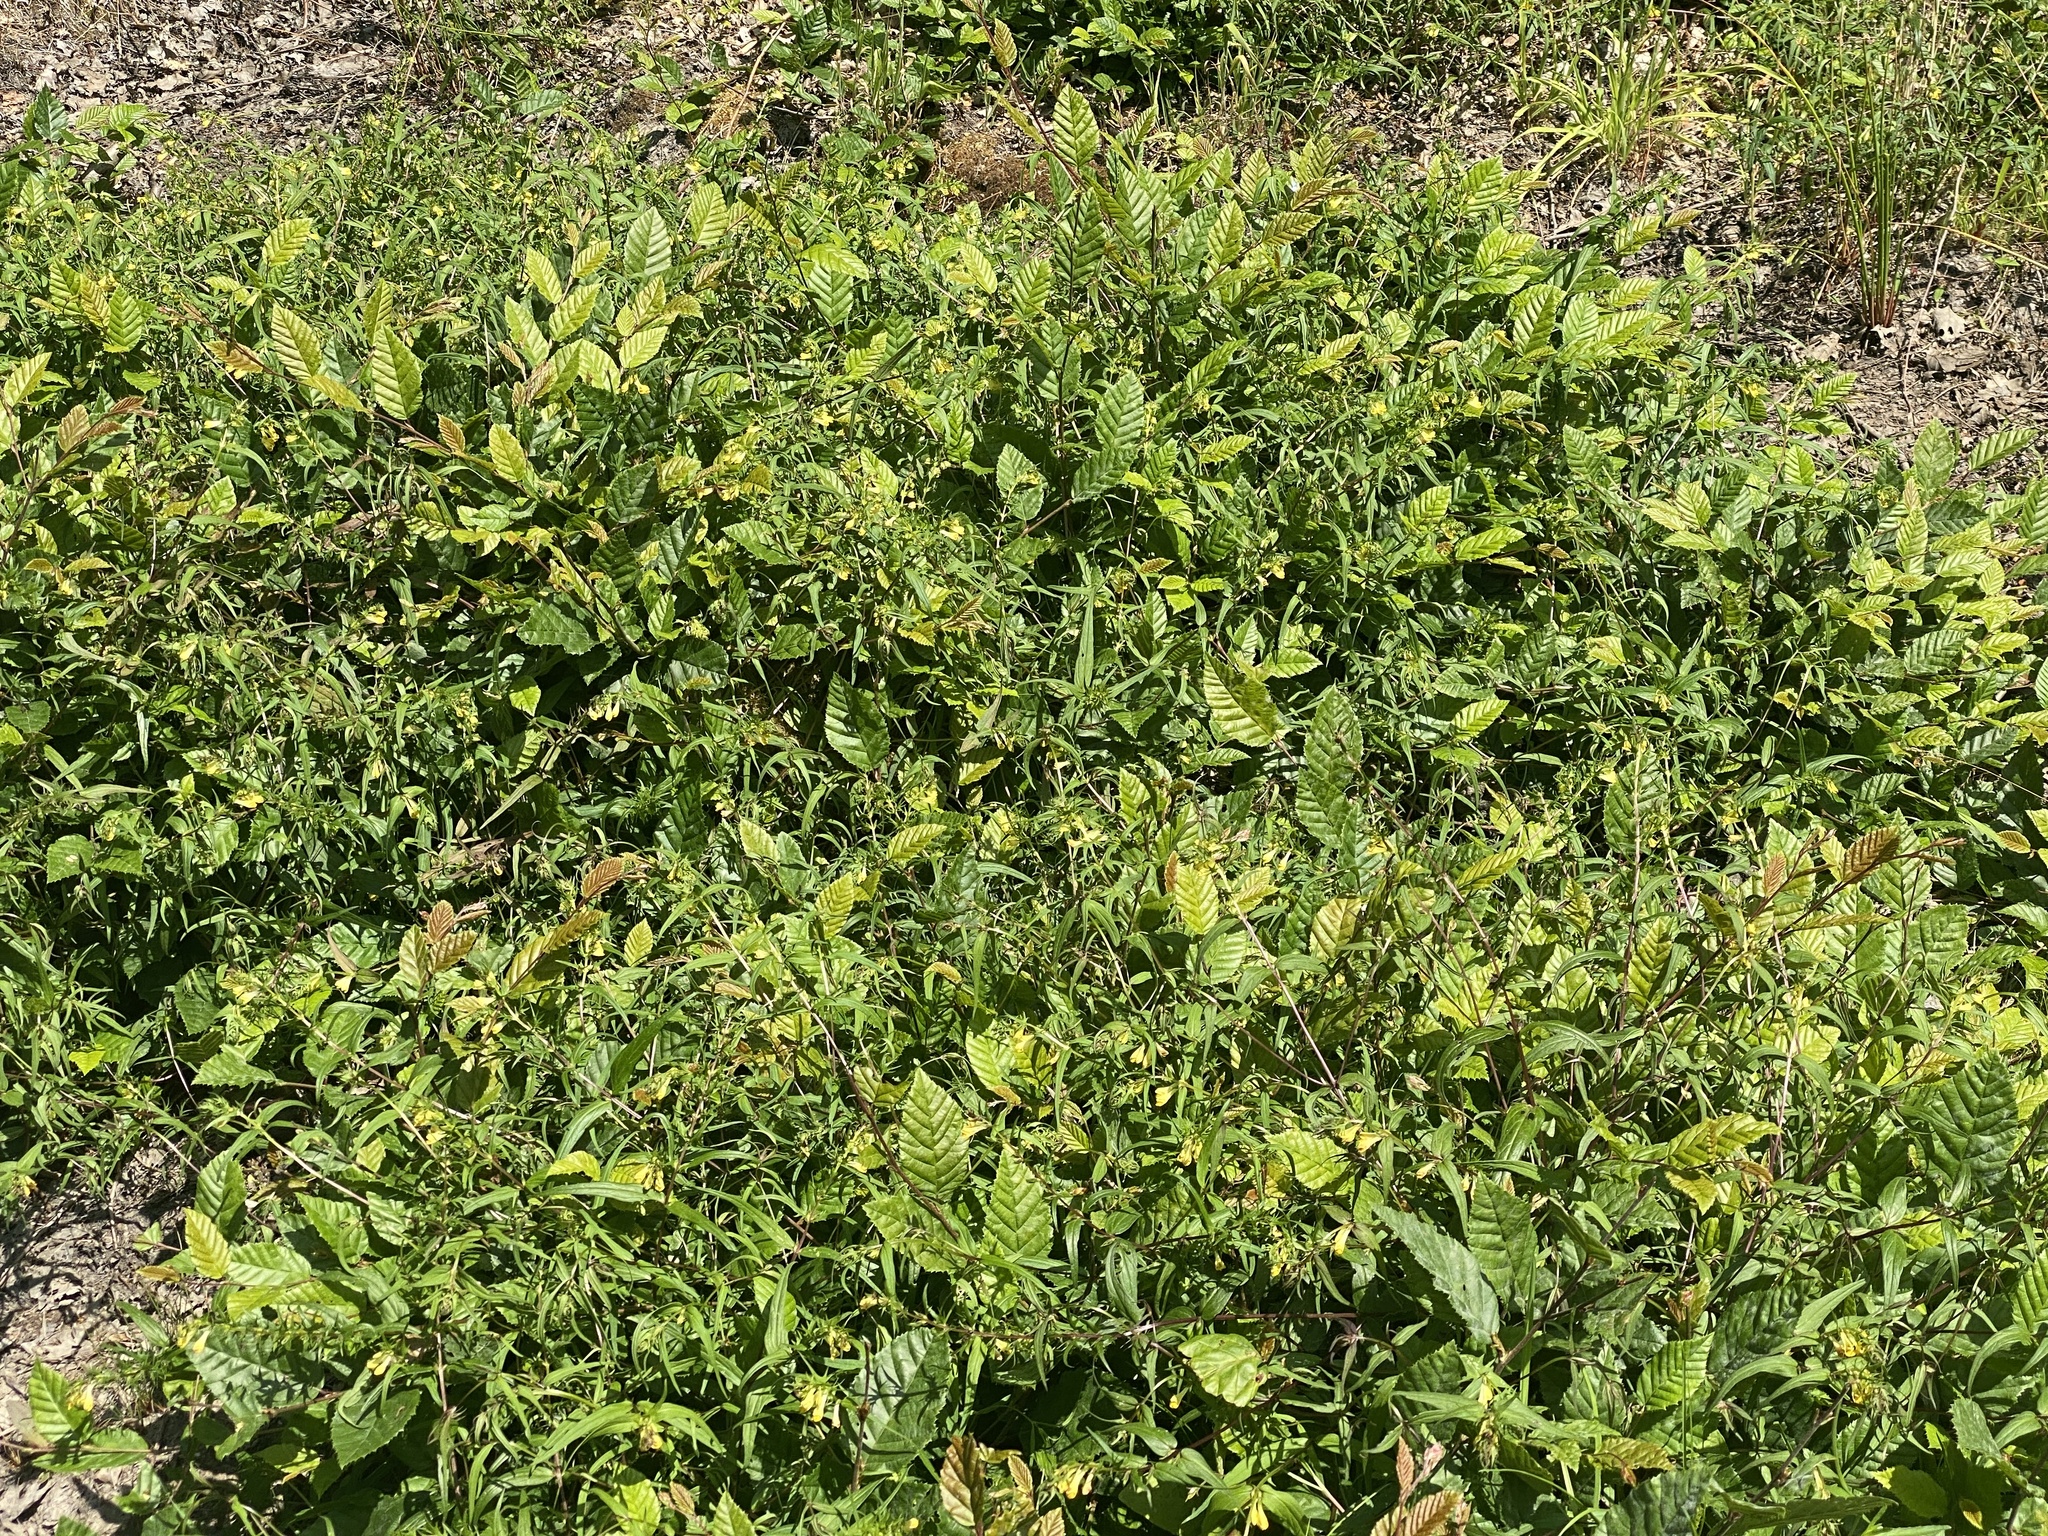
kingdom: Plantae
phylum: Tracheophyta
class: Magnoliopsida
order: Lamiales
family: Orobanchaceae
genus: Melampyrum
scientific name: Melampyrum pratense
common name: Common cow-wheat
